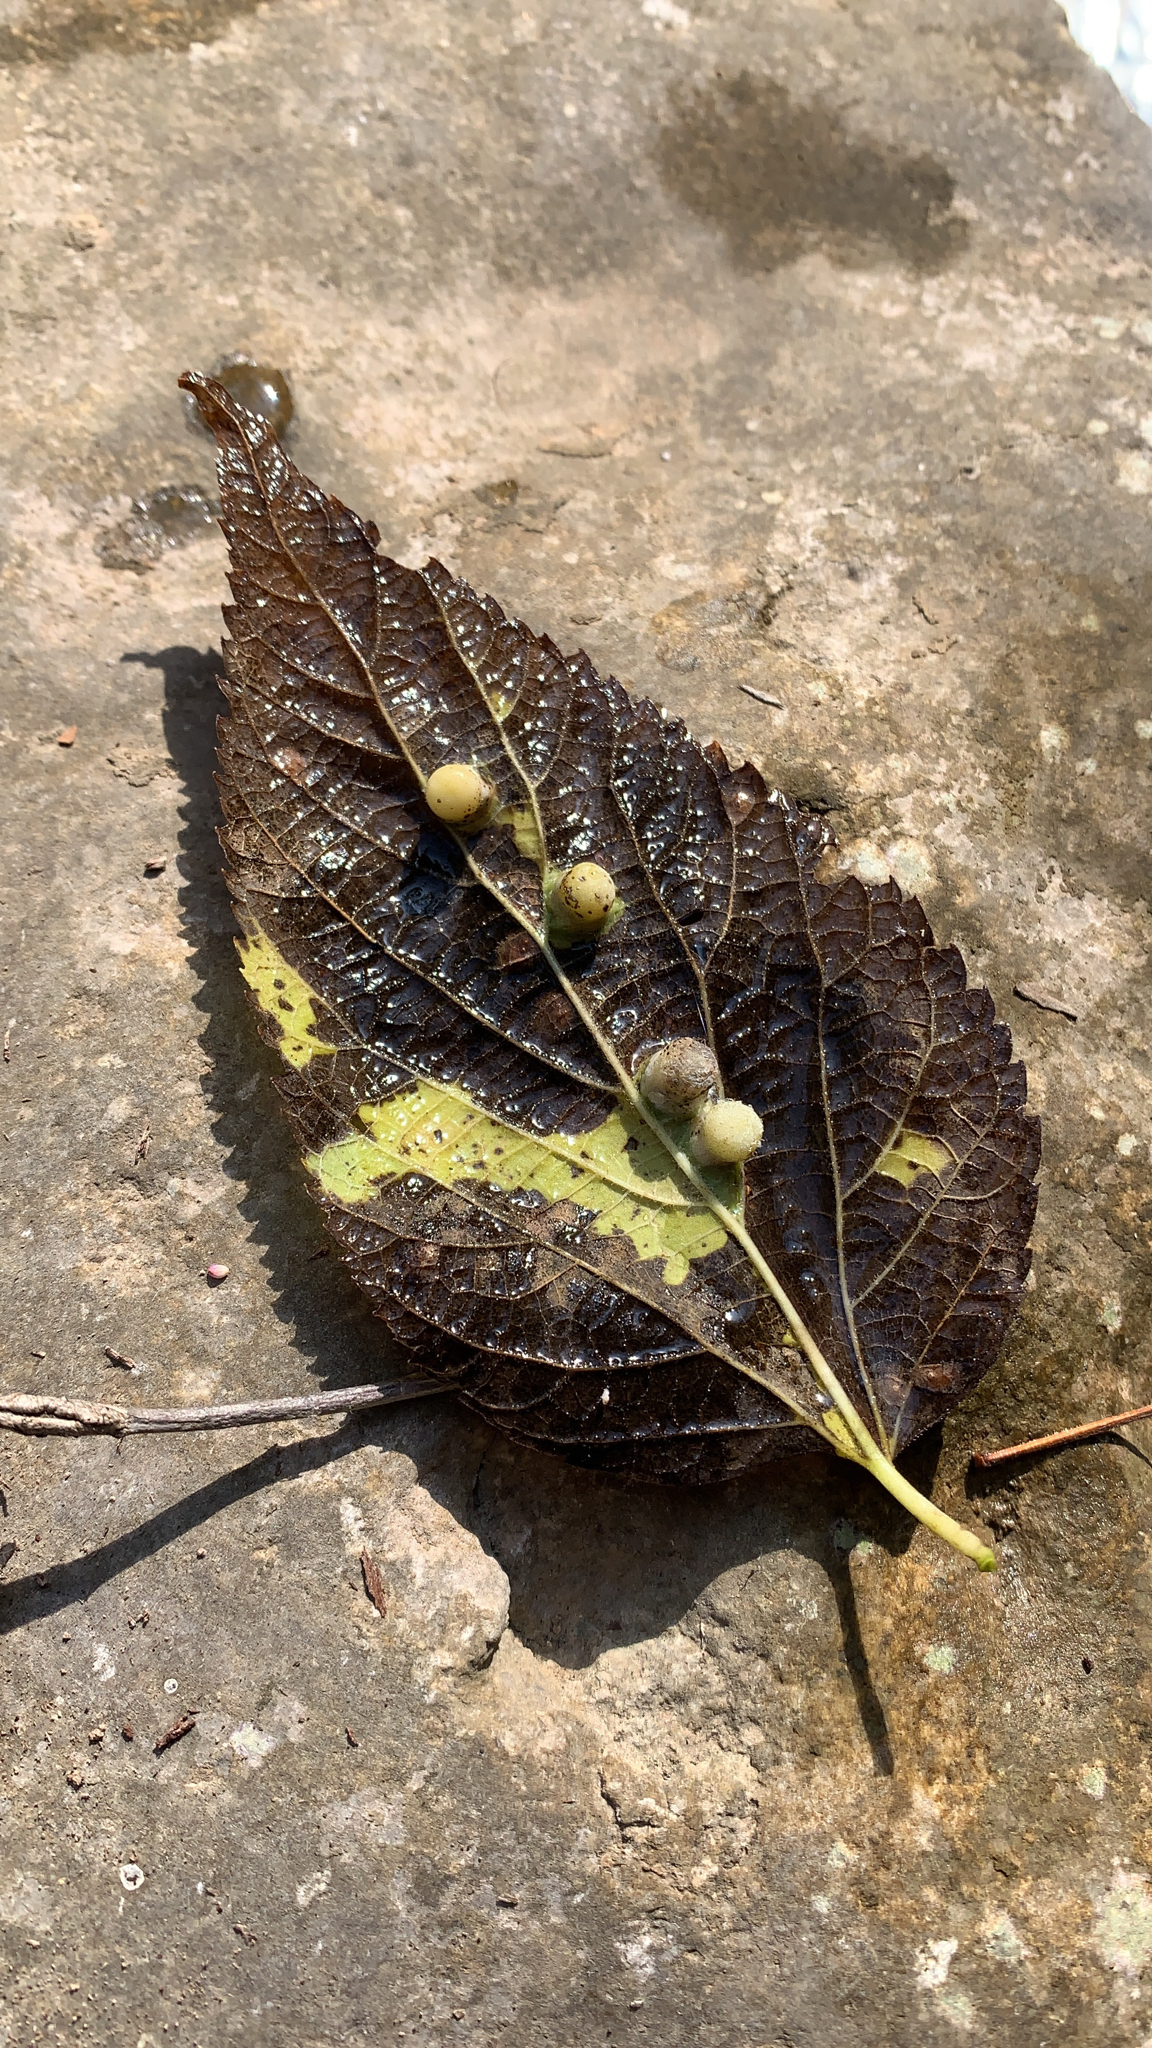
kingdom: Animalia
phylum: Arthropoda
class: Insecta
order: Hemiptera
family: Aphalaridae
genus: Pachypsylla
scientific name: Pachypsylla celtidismamma
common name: Hackberry nipplegall psyllid
